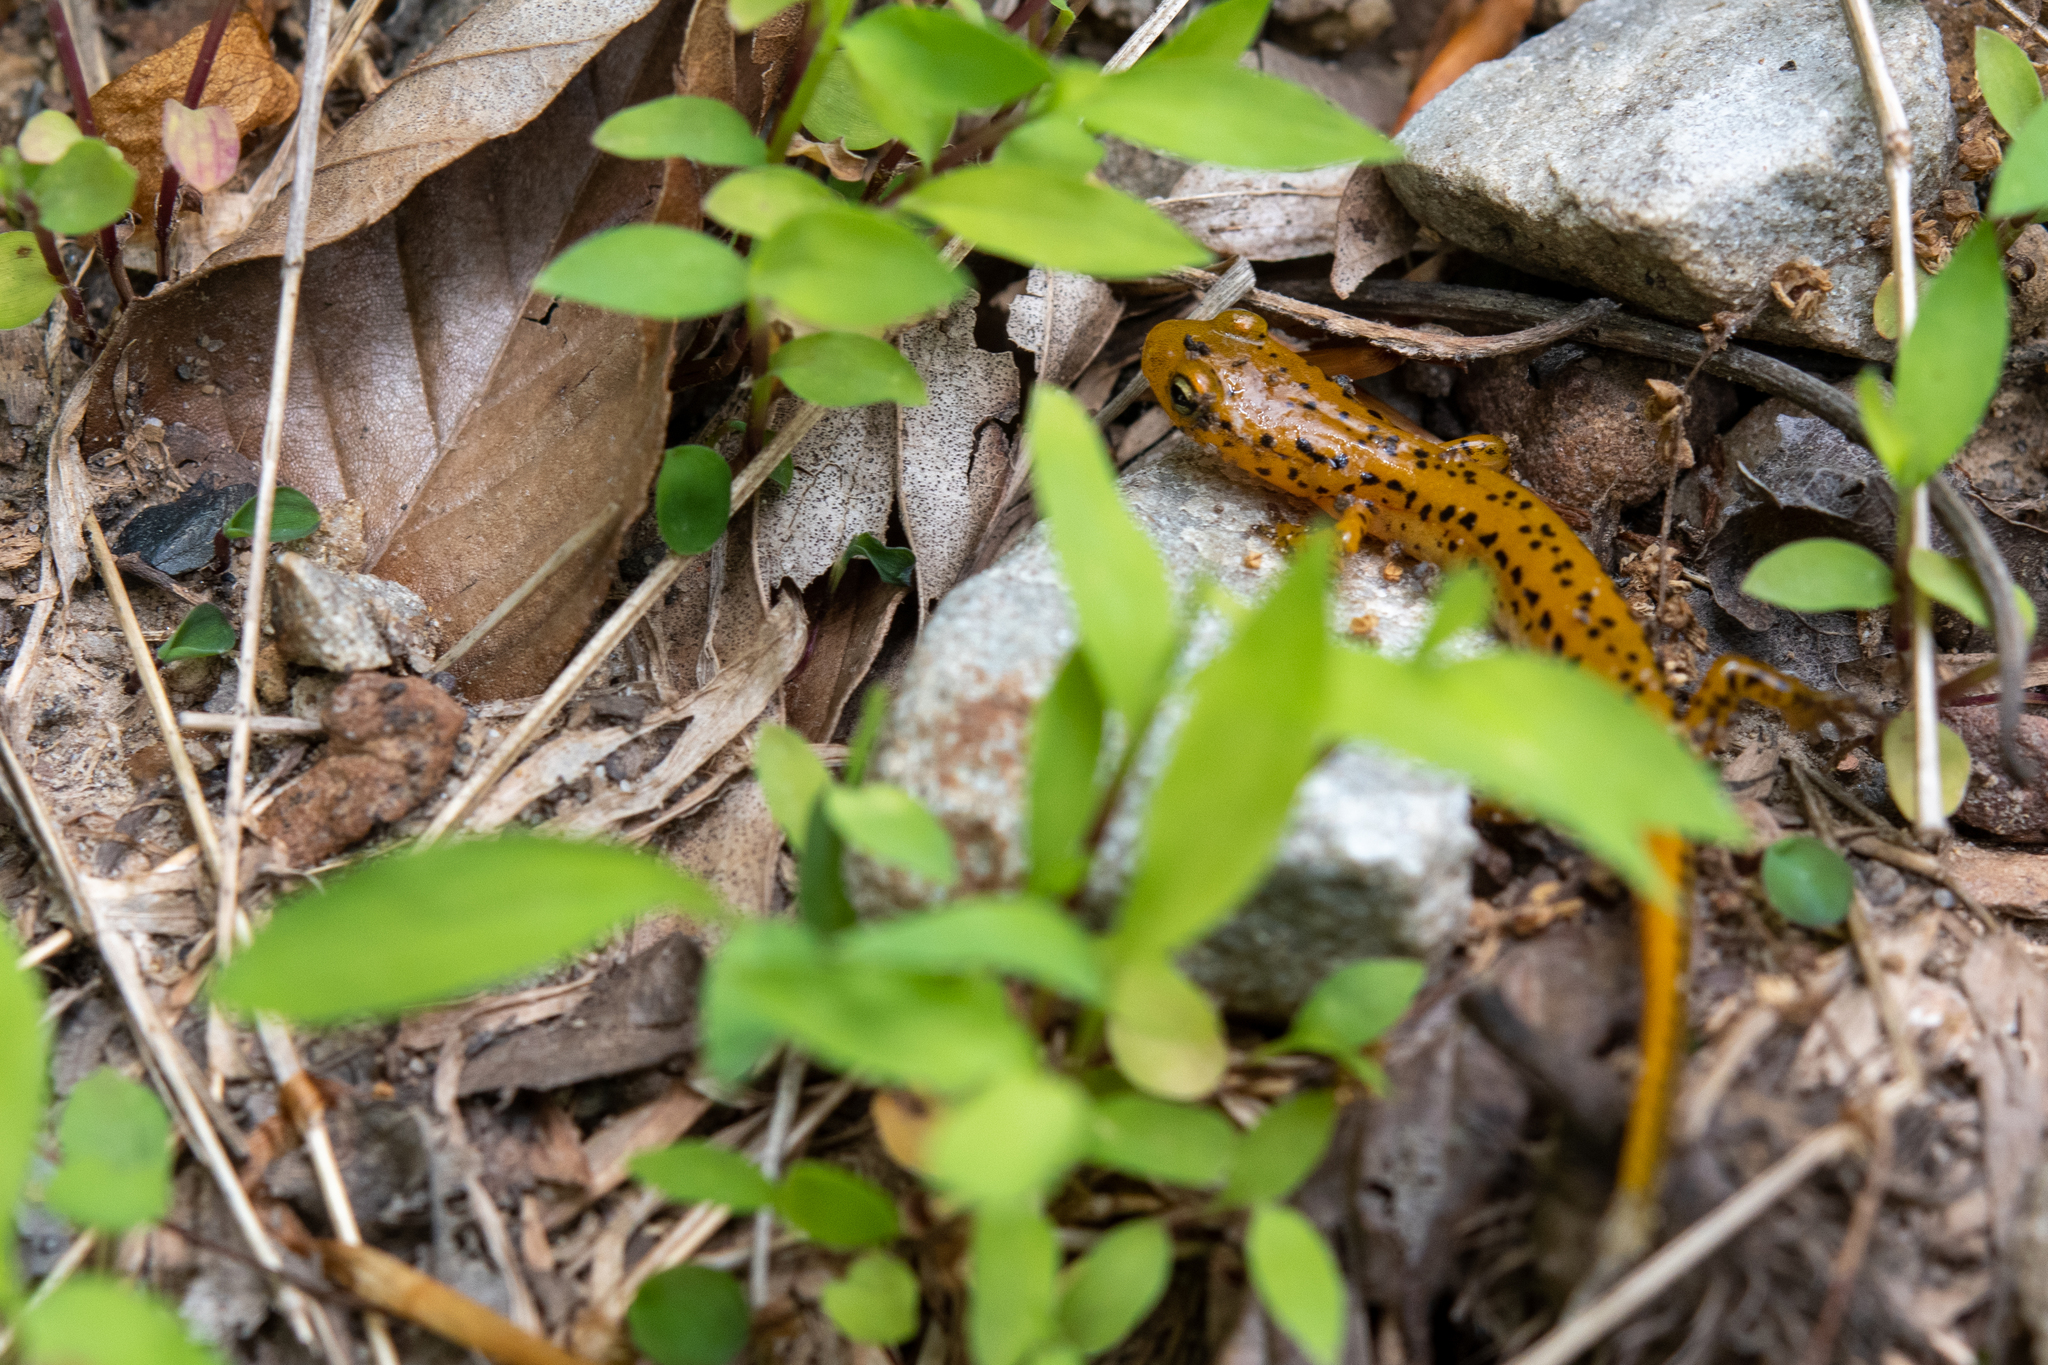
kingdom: Animalia
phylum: Chordata
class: Amphibia
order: Caudata
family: Plethodontidae
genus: Eurycea
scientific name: Eurycea longicauda
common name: Long-tailed salamander
